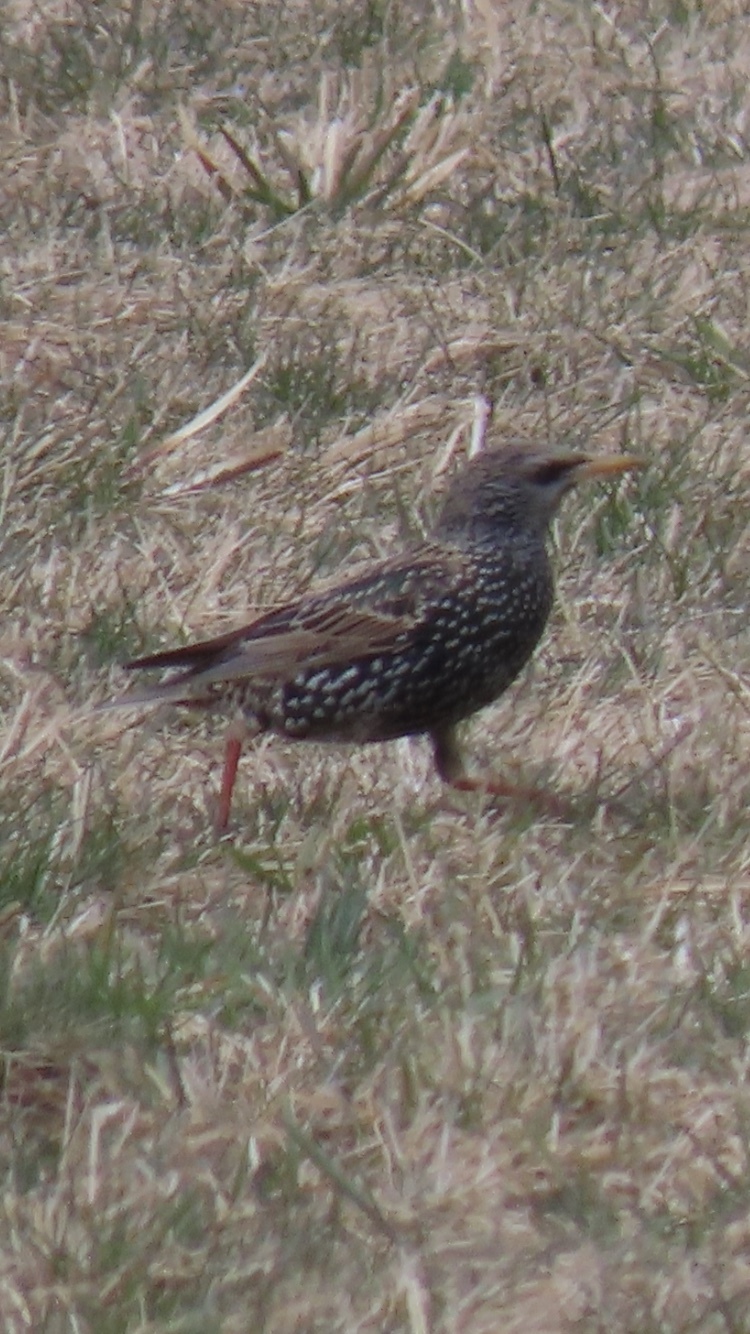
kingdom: Animalia
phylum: Chordata
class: Aves
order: Passeriformes
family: Sturnidae
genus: Sturnus
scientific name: Sturnus vulgaris
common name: Common starling
